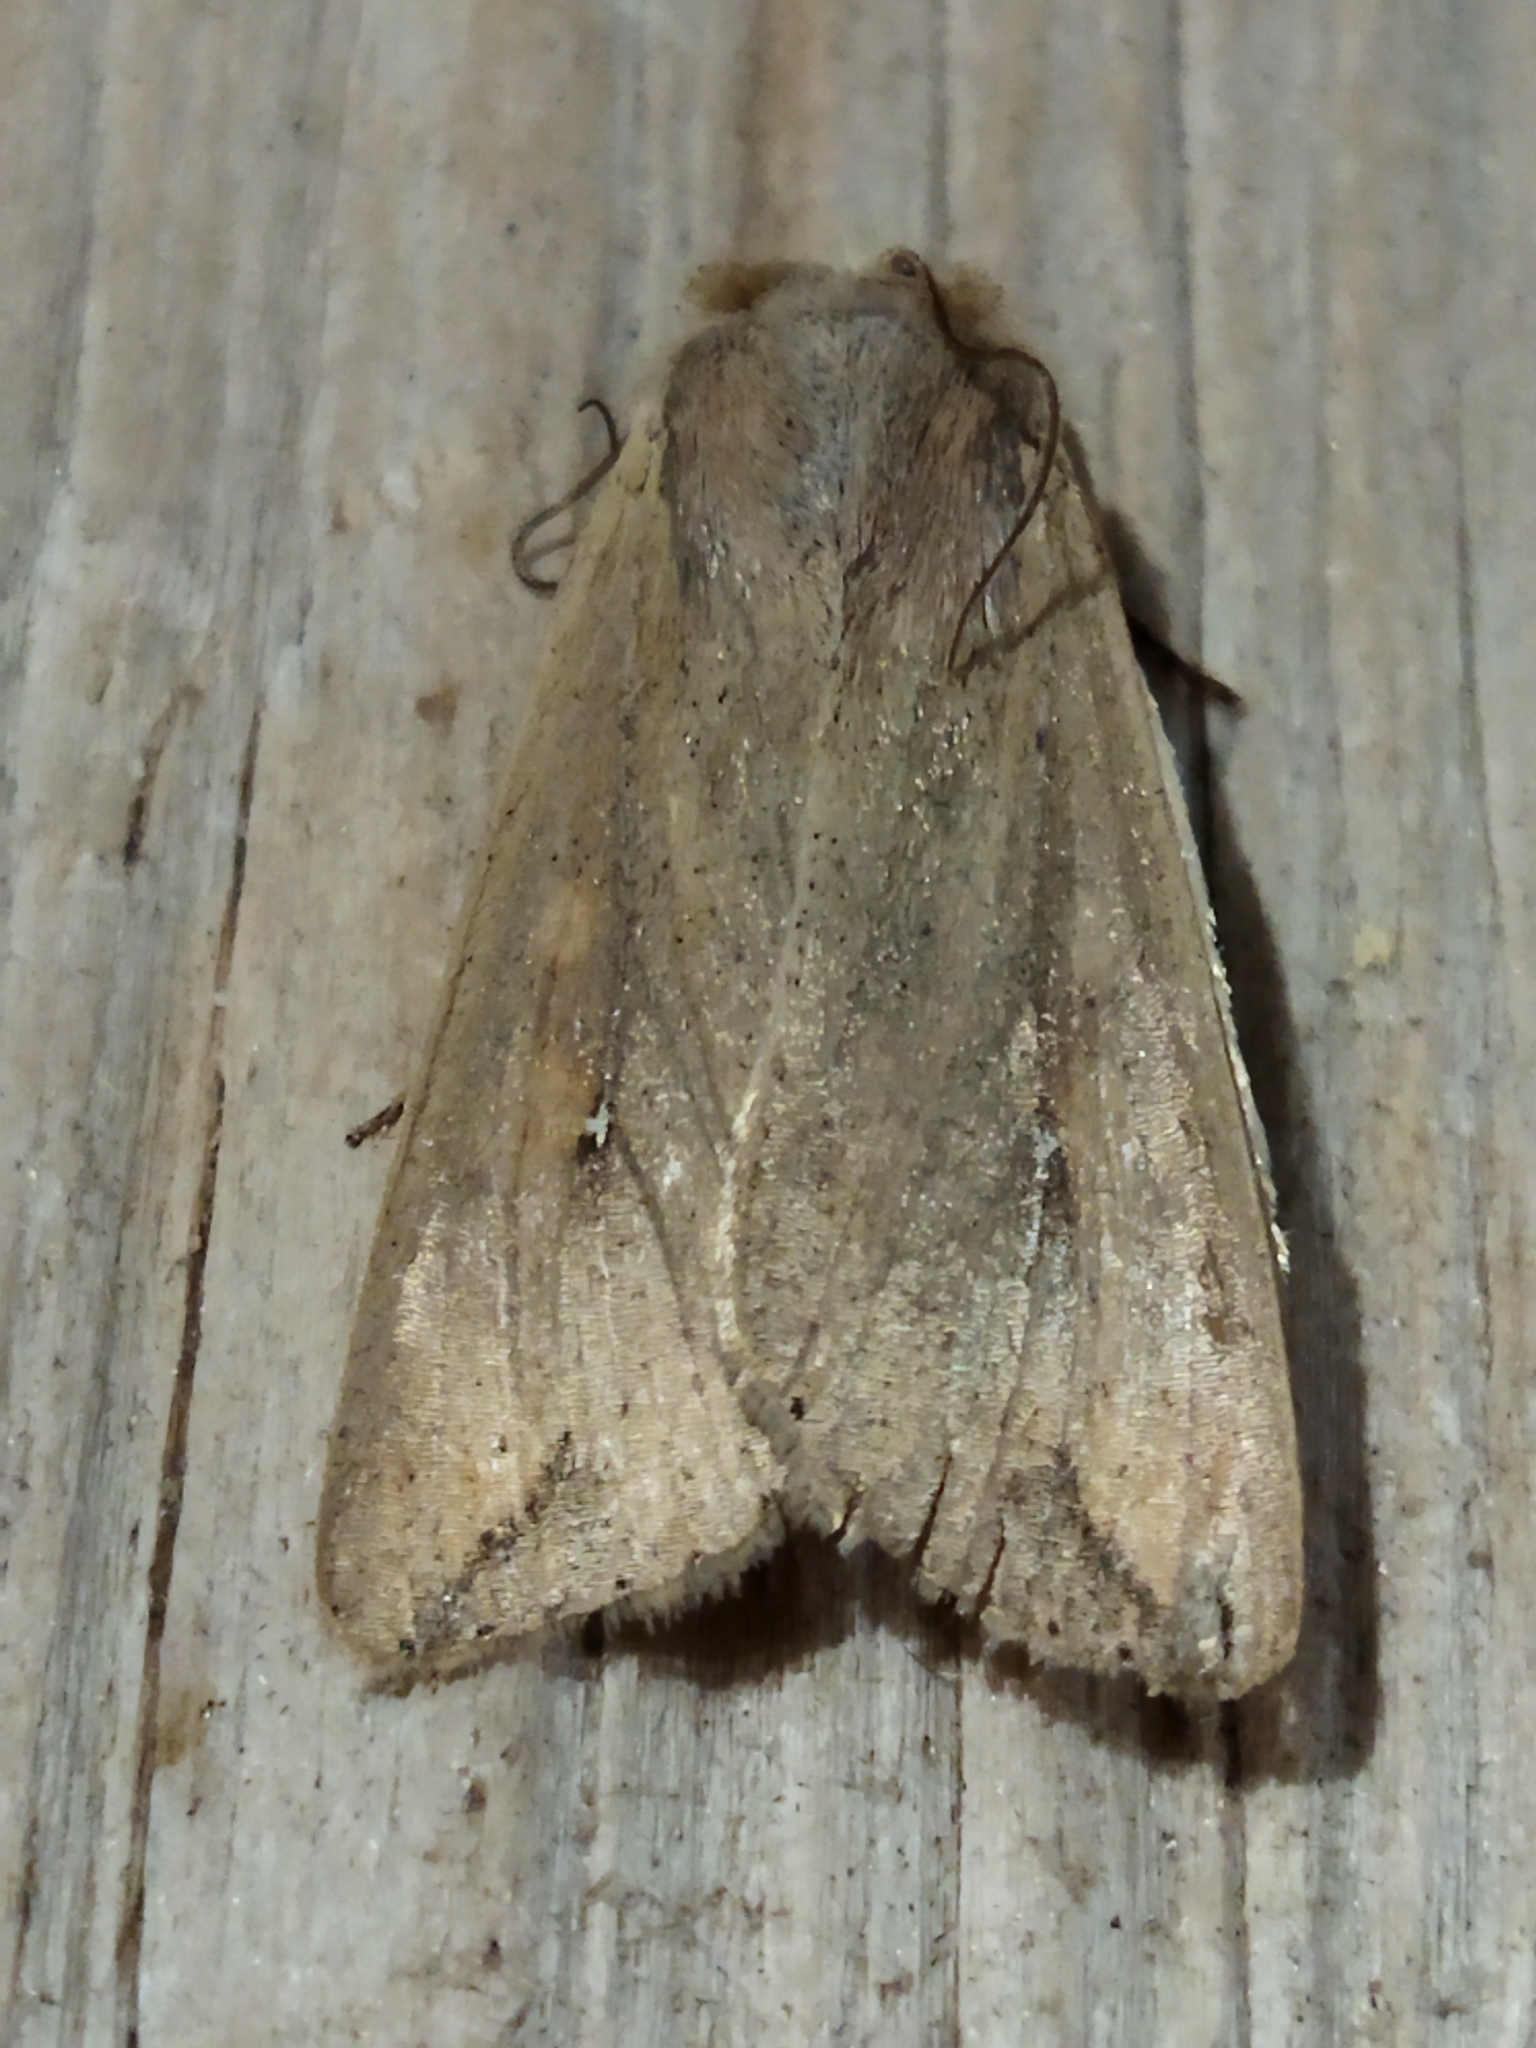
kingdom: Animalia
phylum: Arthropoda
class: Insecta
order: Lepidoptera
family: Noctuidae
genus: Mythimna
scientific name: Mythimna unipuncta
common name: White-speck
